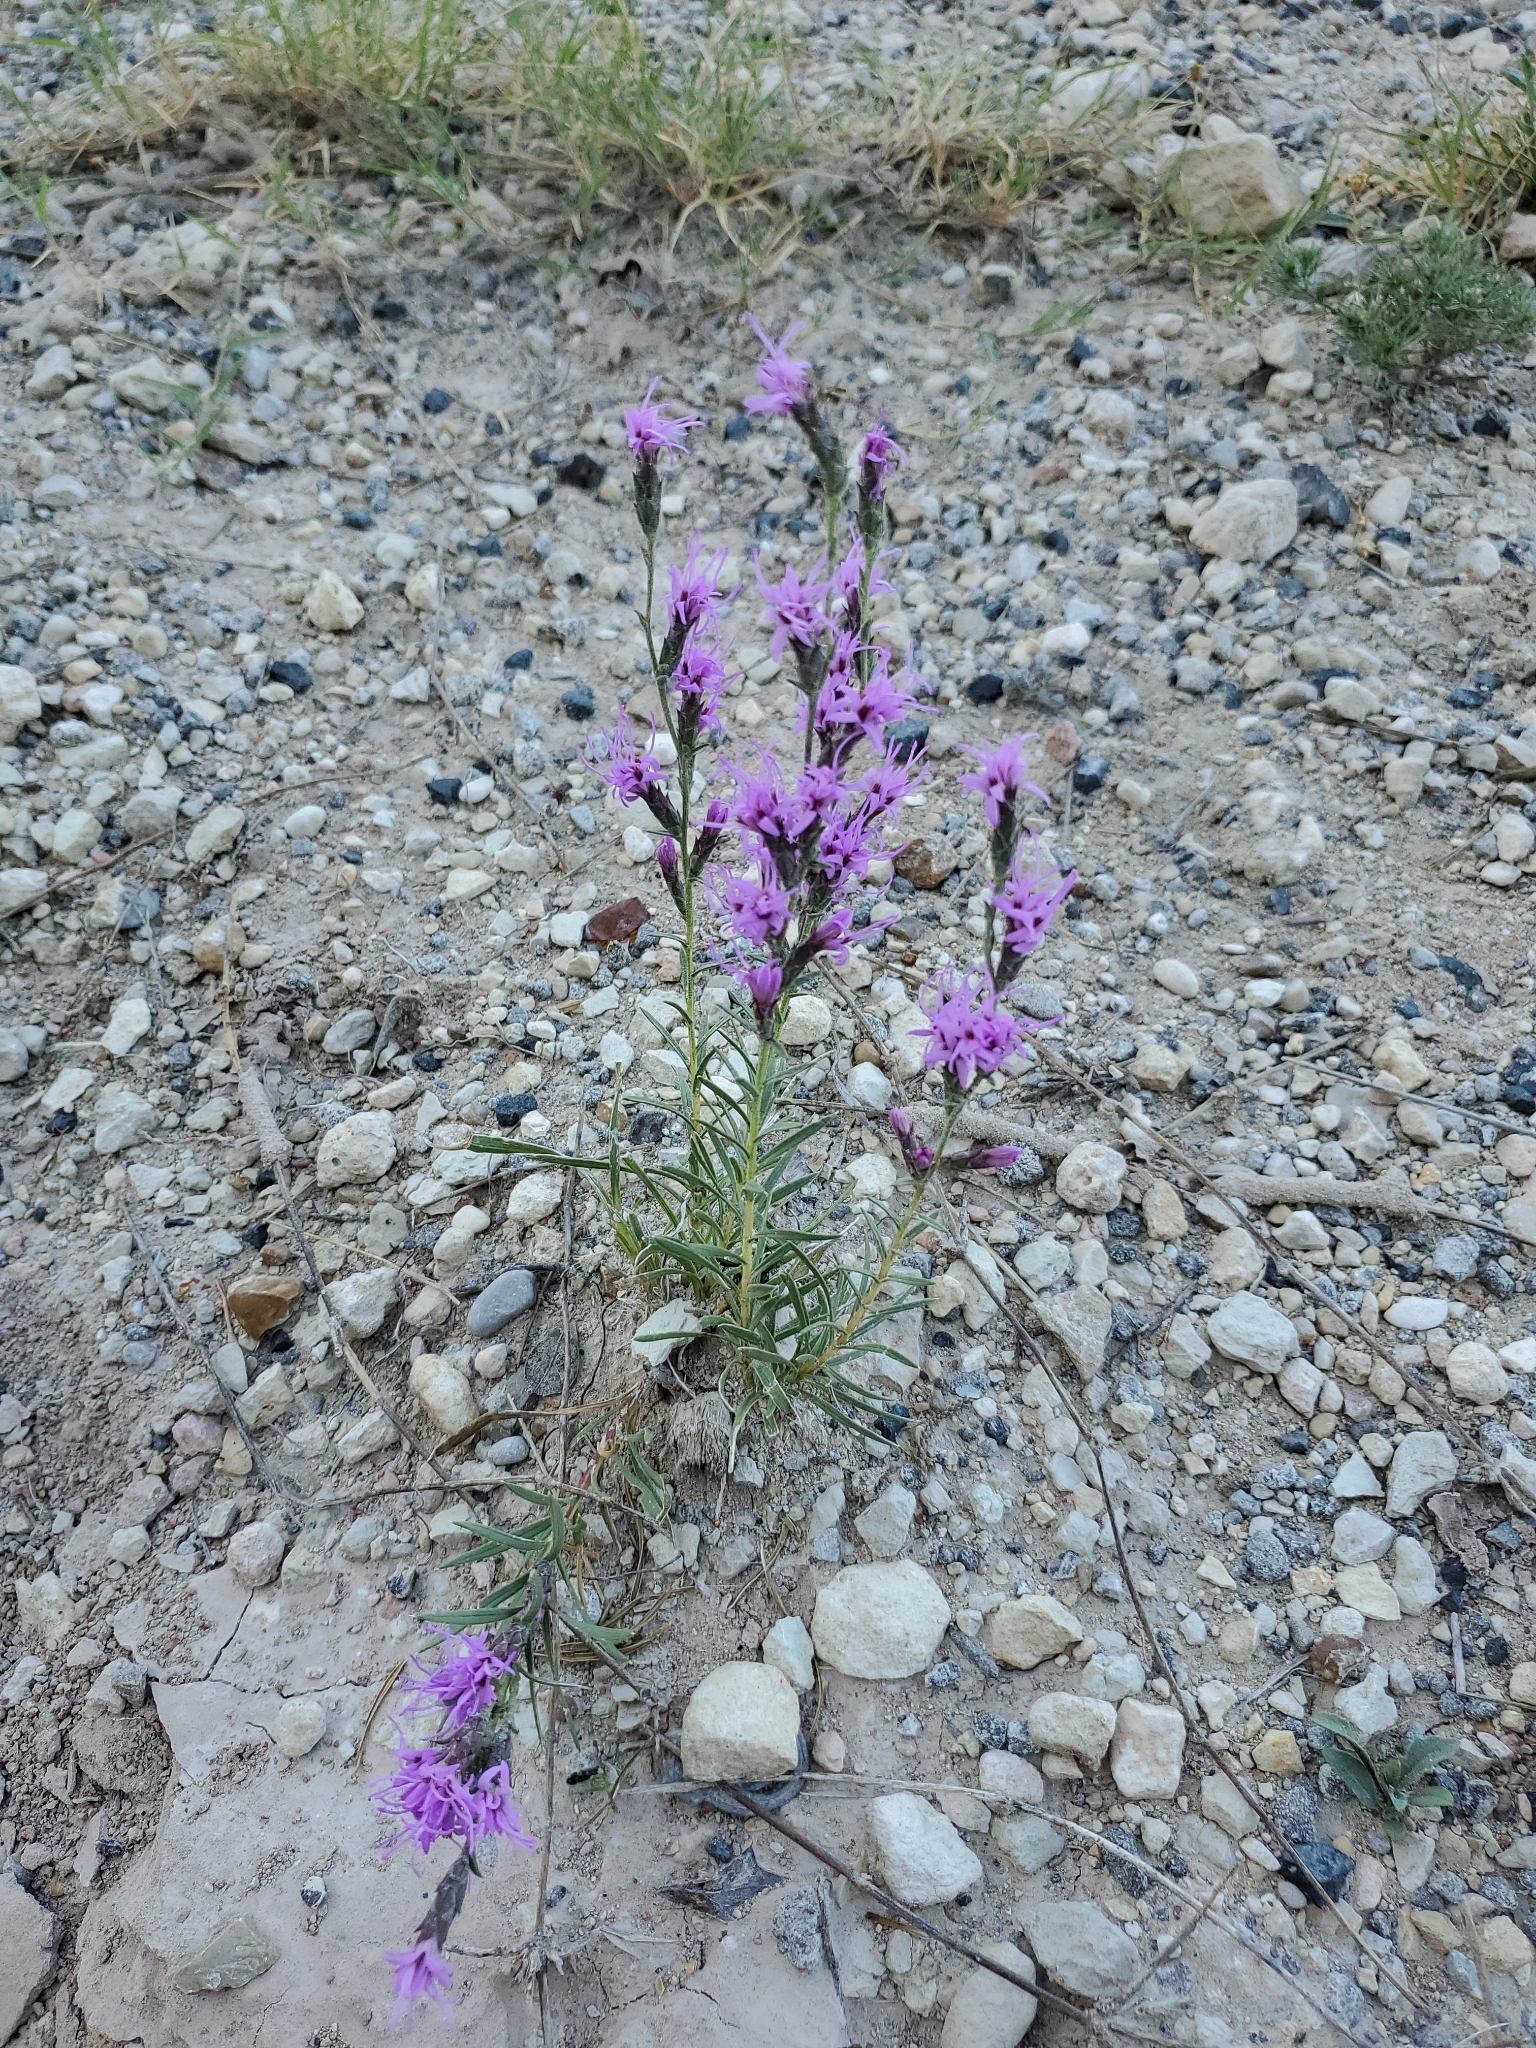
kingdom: Plantae
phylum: Tracheophyta
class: Magnoliopsida
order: Asterales
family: Asteraceae
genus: Liatris
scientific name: Liatris punctata
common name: Dotted gayfeather
